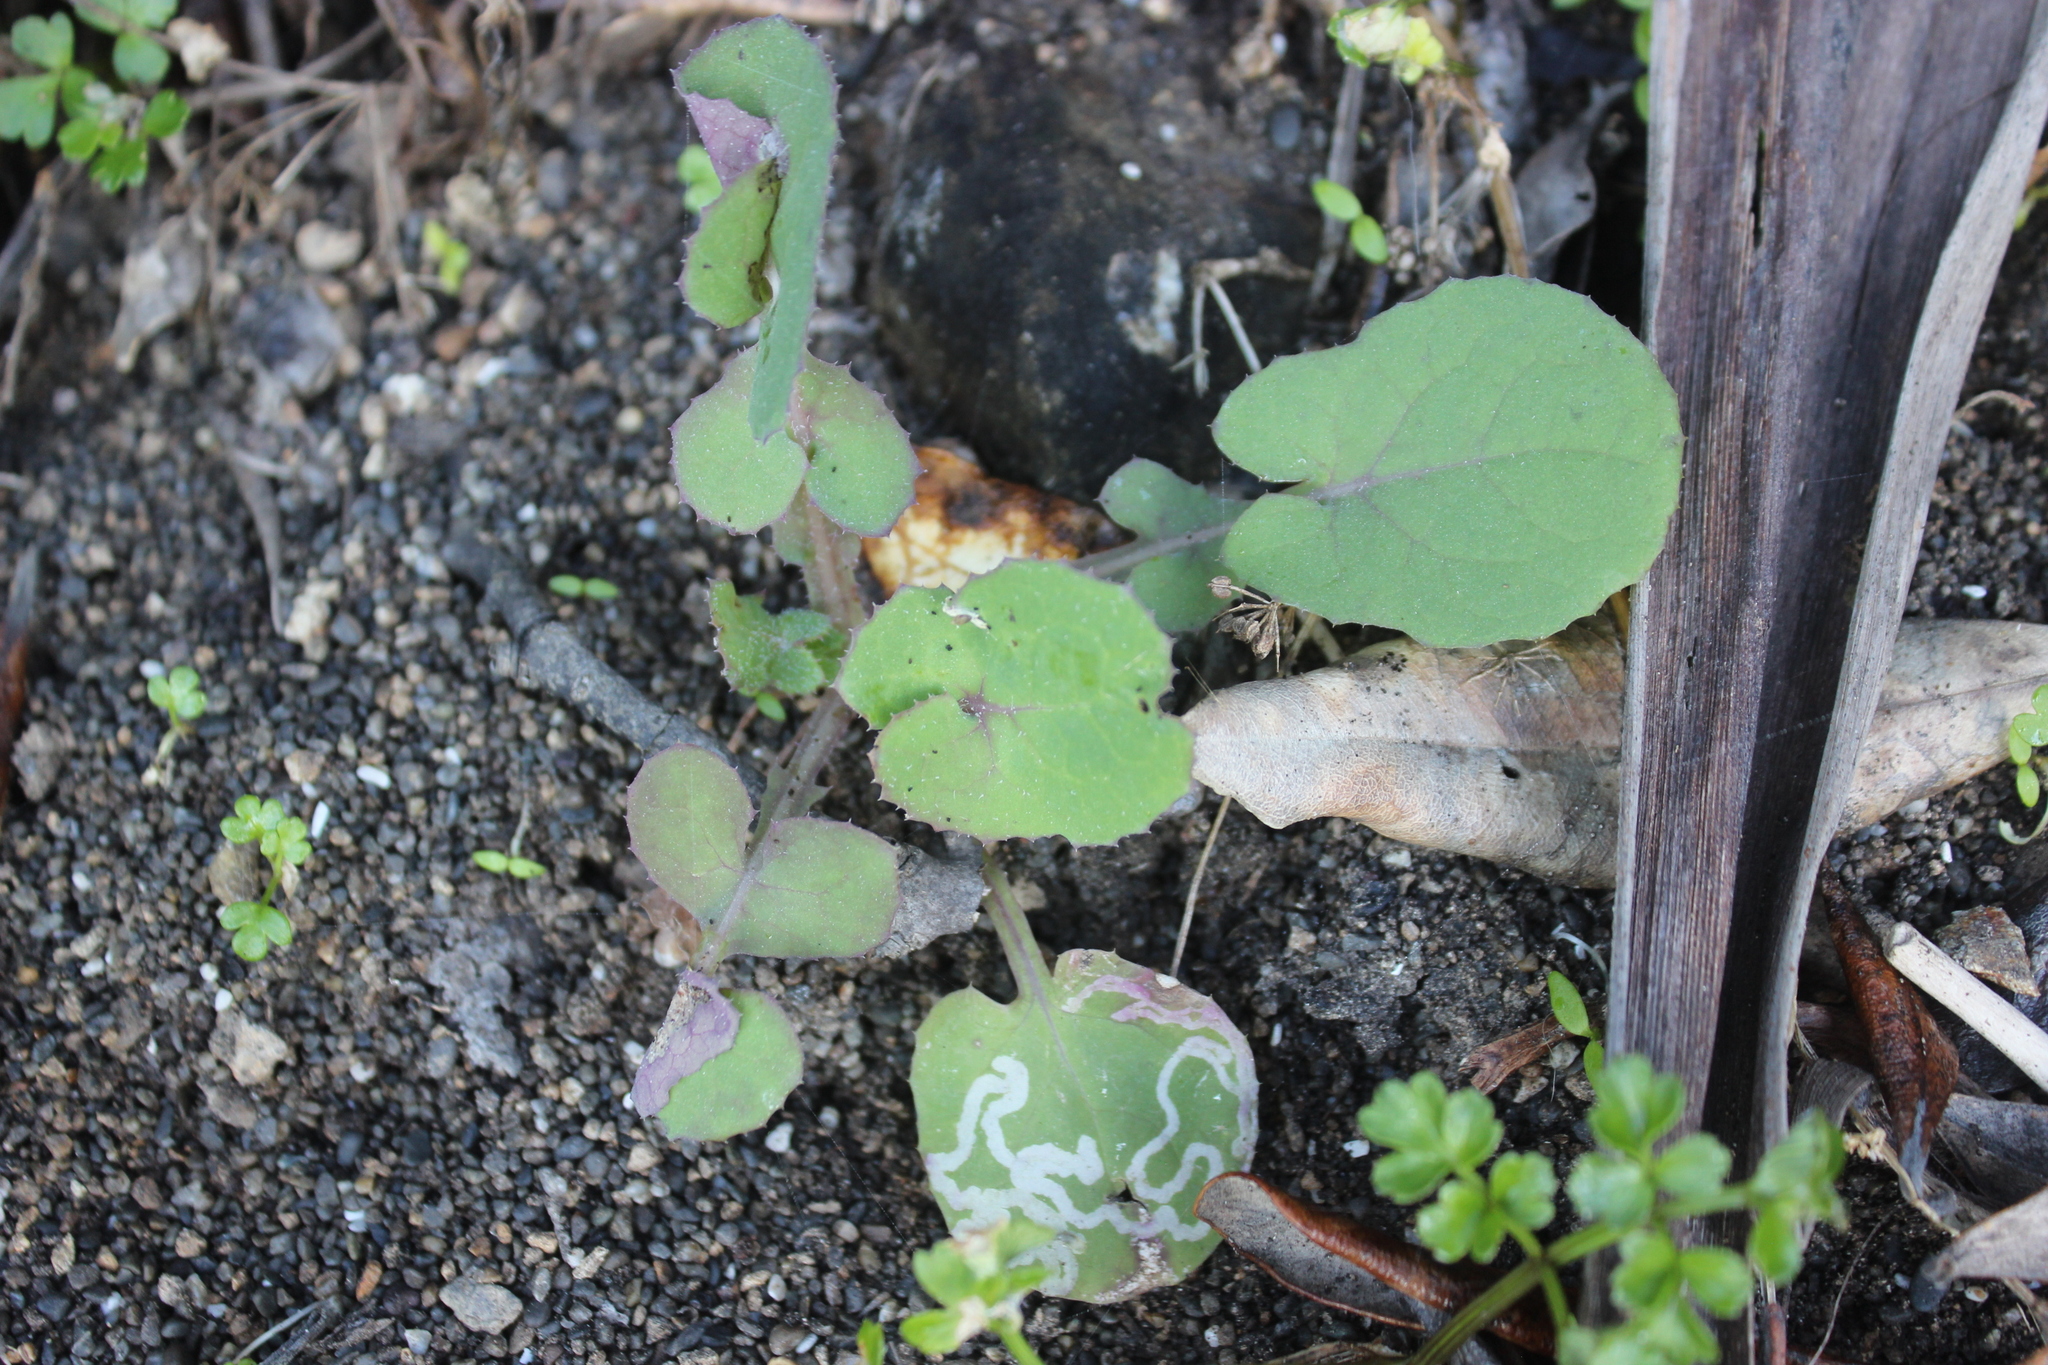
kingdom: Plantae
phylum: Tracheophyta
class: Magnoliopsida
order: Asterales
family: Asteraceae
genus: Sonchus
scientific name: Sonchus oleraceus
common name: Common sowthistle
